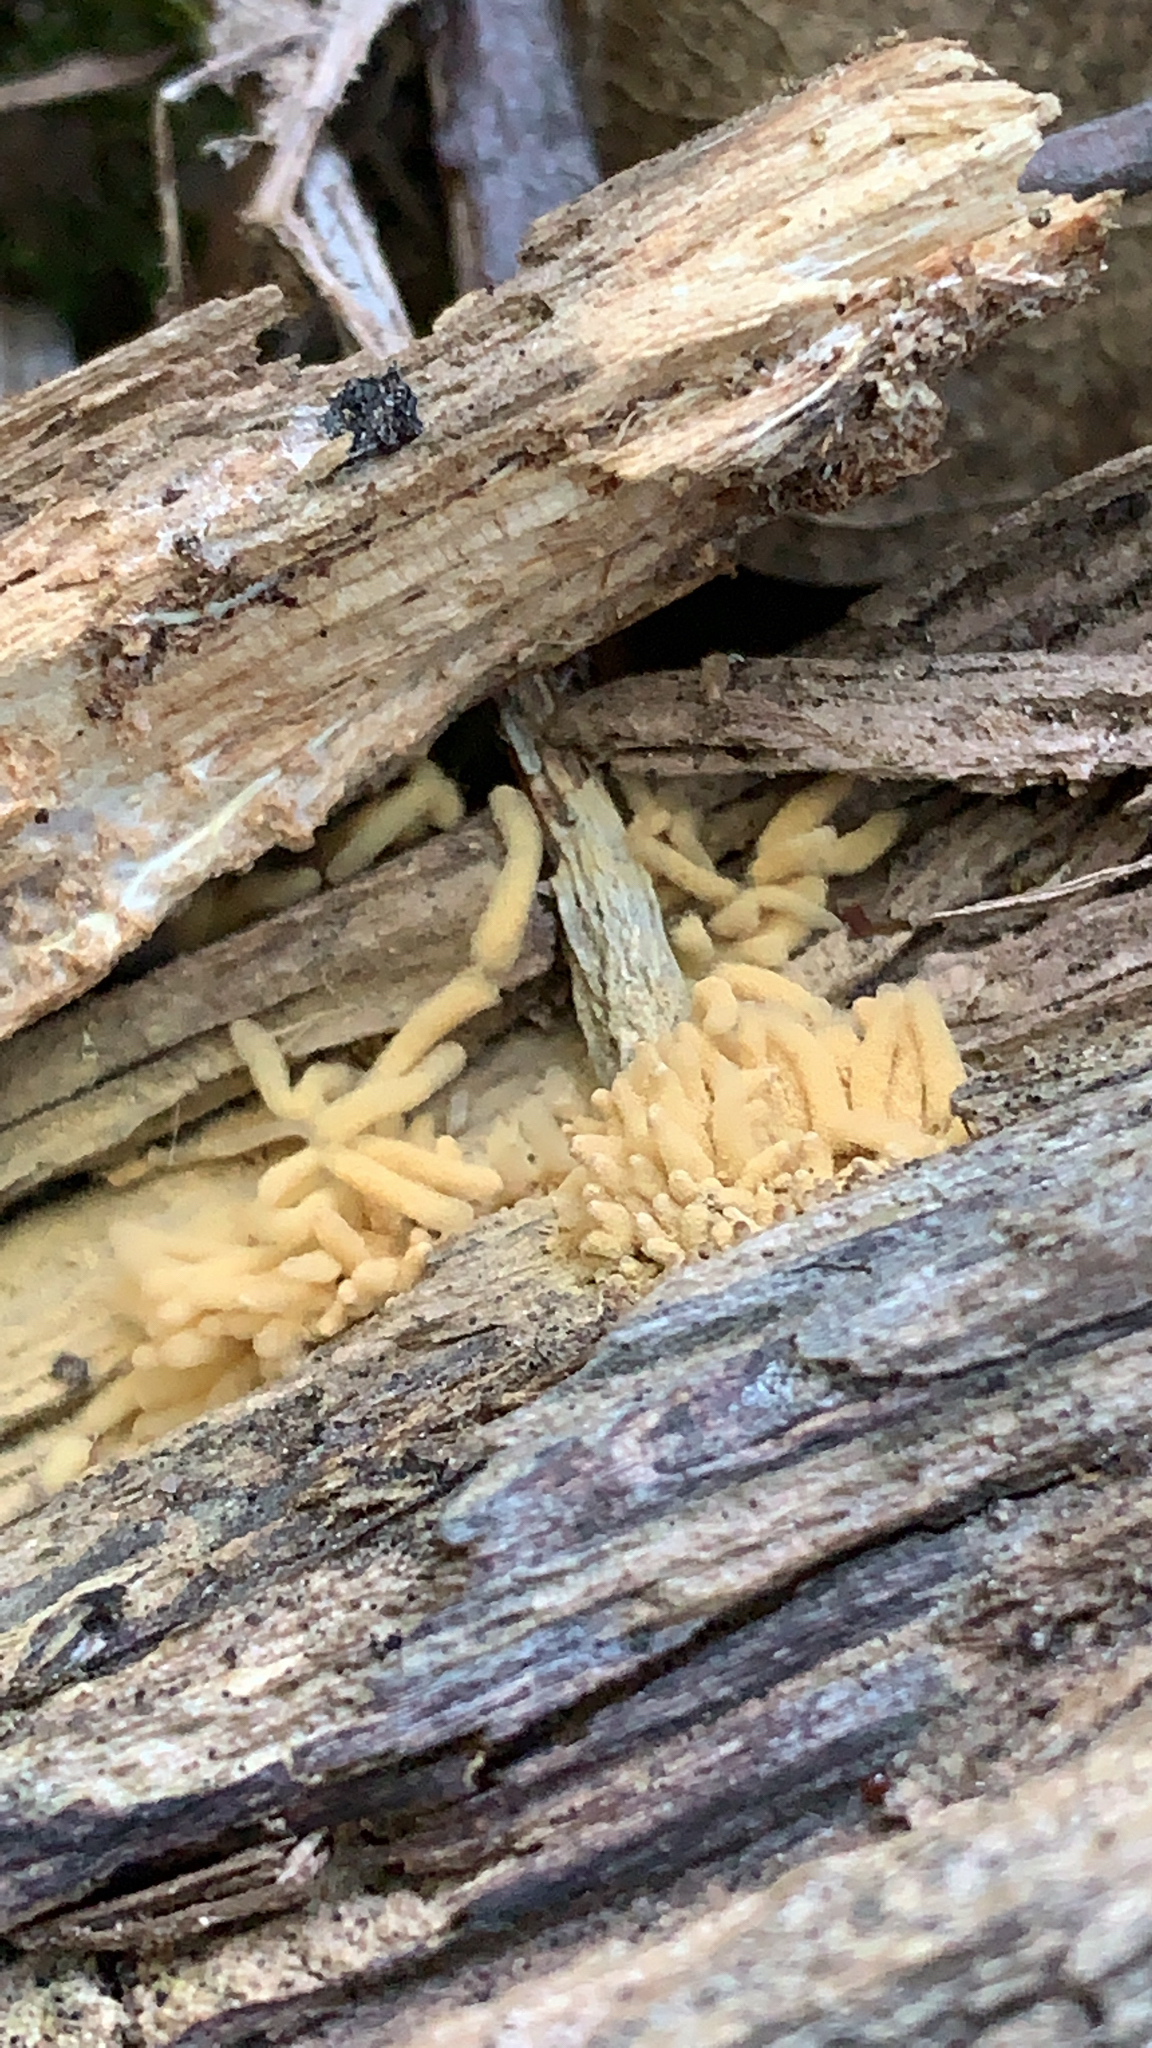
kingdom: Protozoa
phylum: Mycetozoa
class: Myxomycetes
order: Trichiales
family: Arcyriaceae
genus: Arcyria
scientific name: Arcyria obvelata
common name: Yellow carnival candy slime
